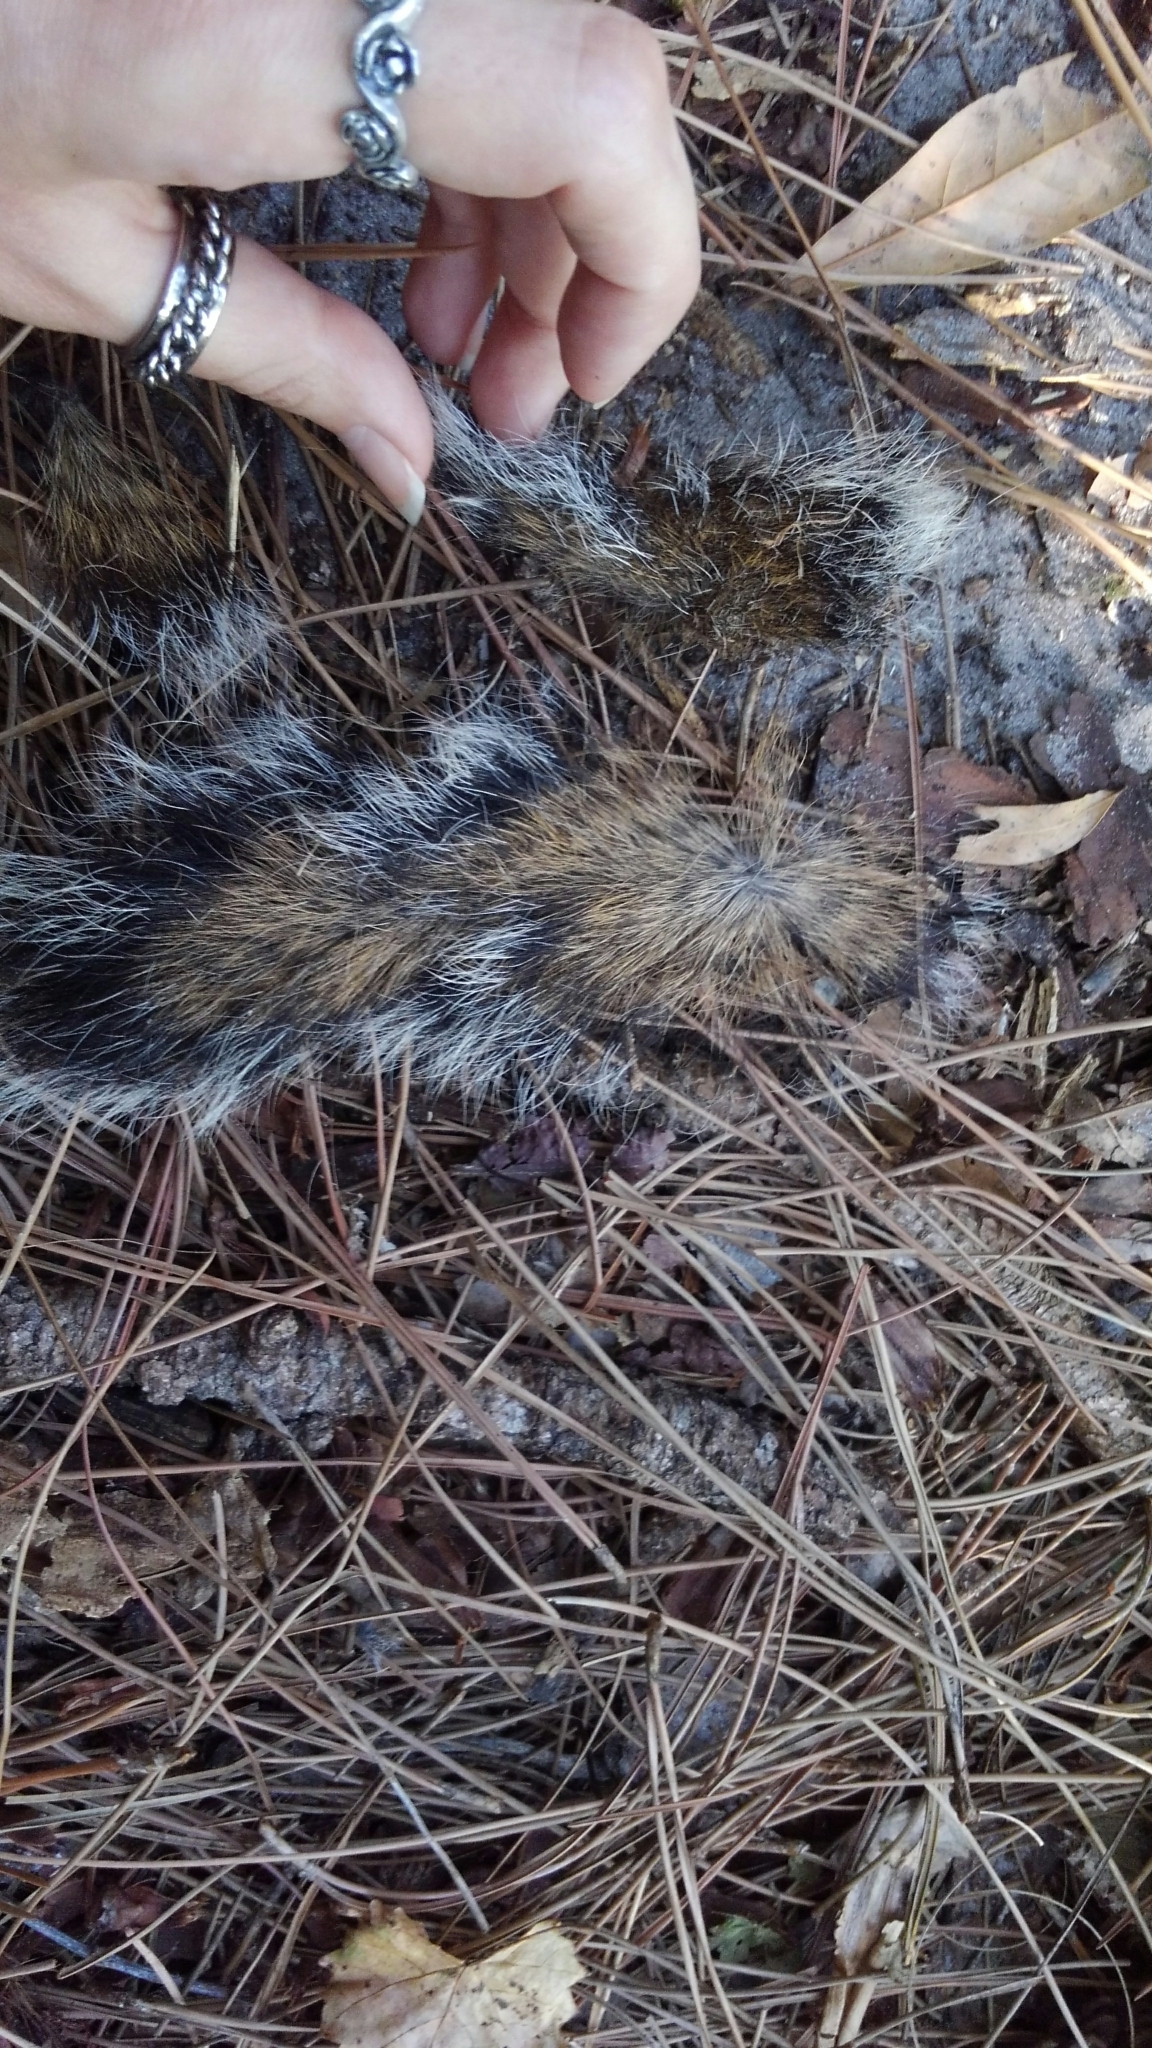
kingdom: Animalia
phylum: Chordata
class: Mammalia
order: Carnivora
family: Procyonidae
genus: Procyon
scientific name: Procyon lotor
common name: Raccoon
